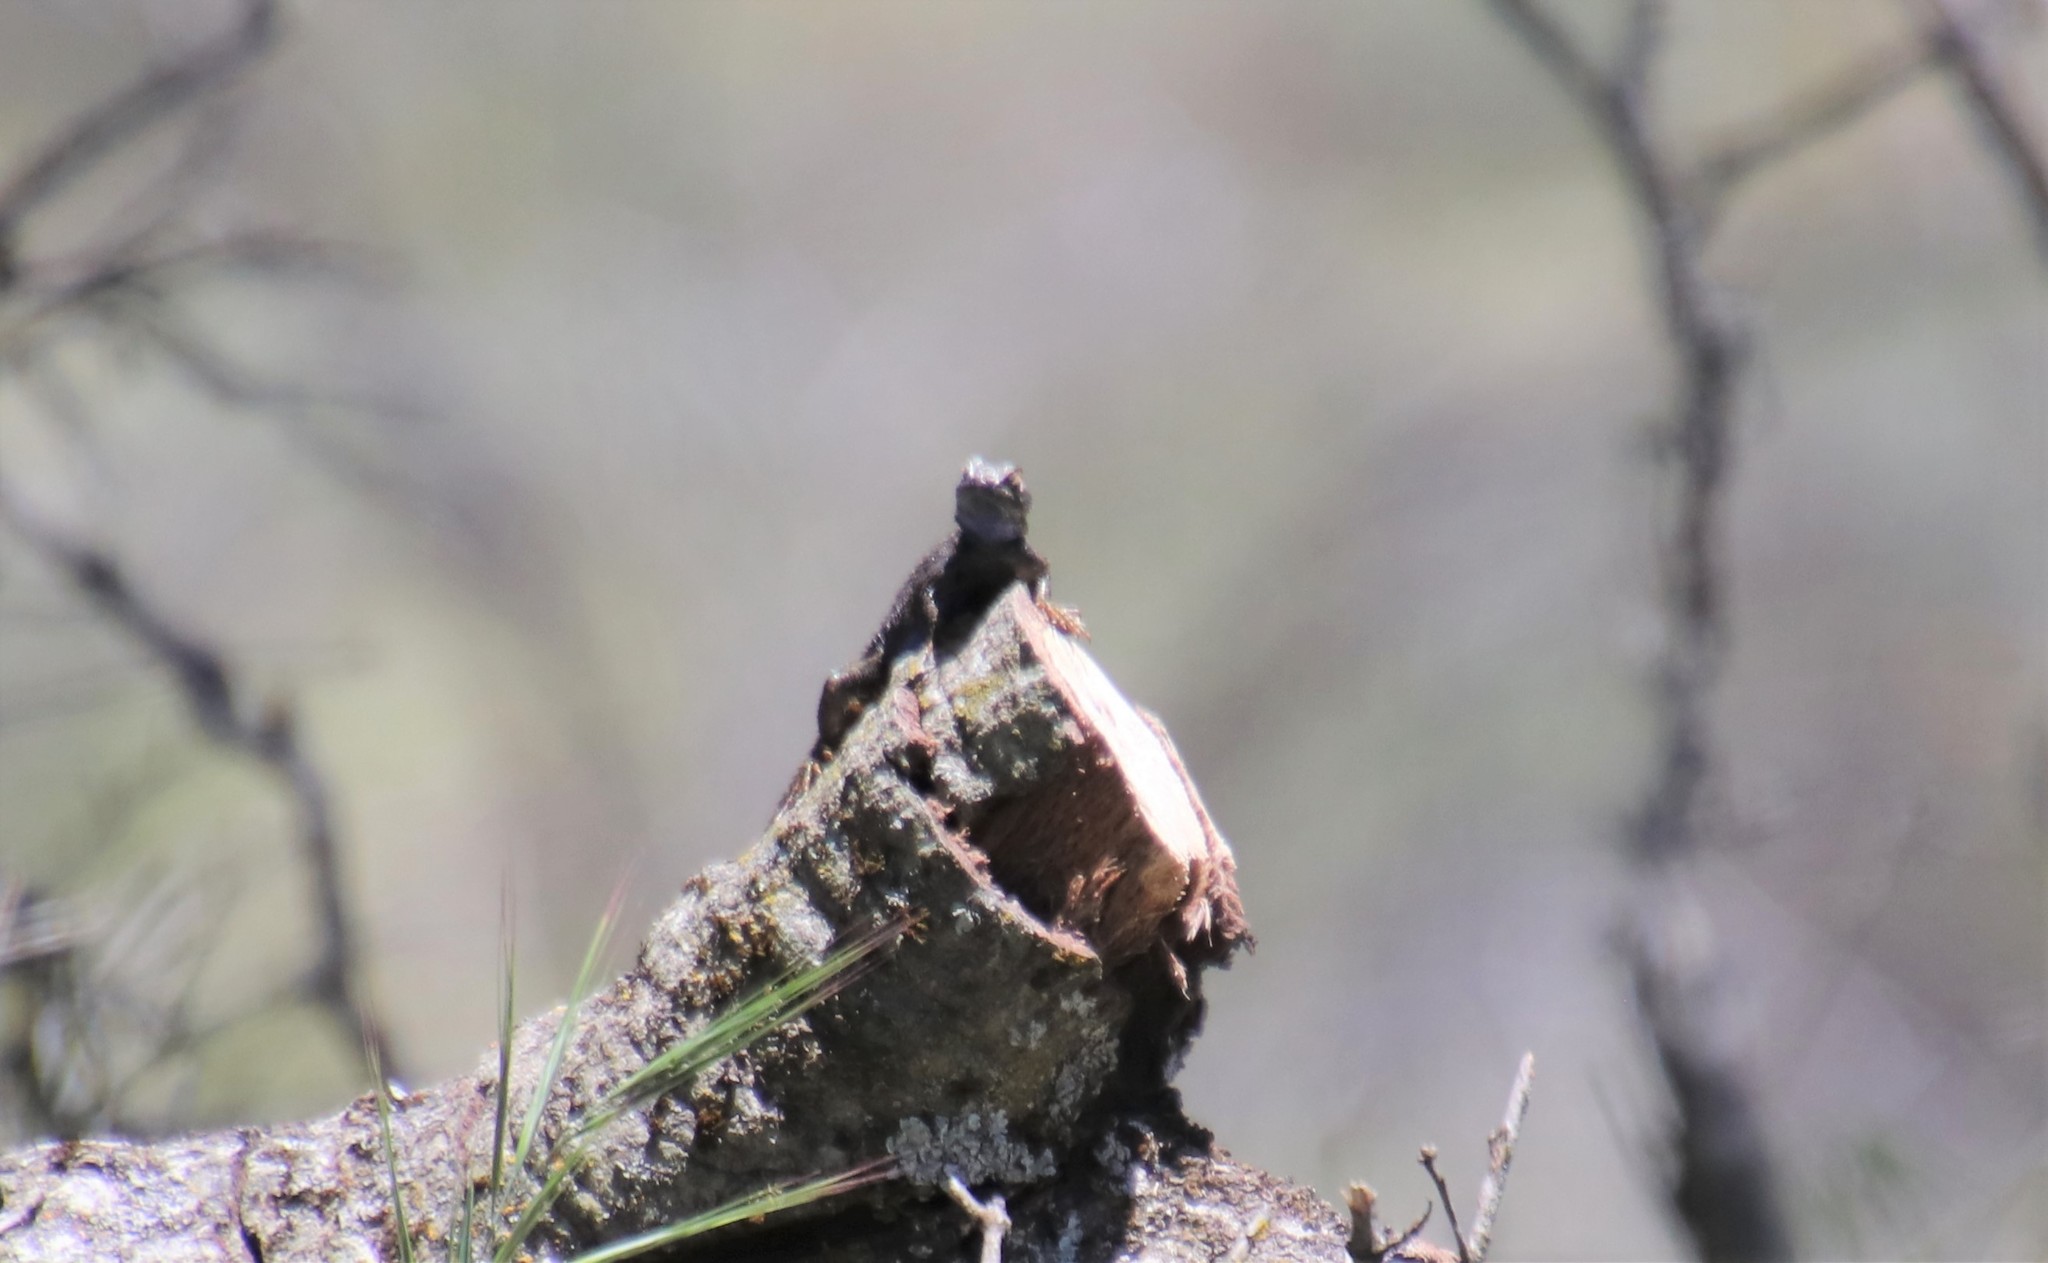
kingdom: Animalia
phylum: Chordata
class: Squamata
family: Phrynosomatidae
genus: Sceloporus
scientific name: Sceloporus occidentalis
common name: Western fence lizard
